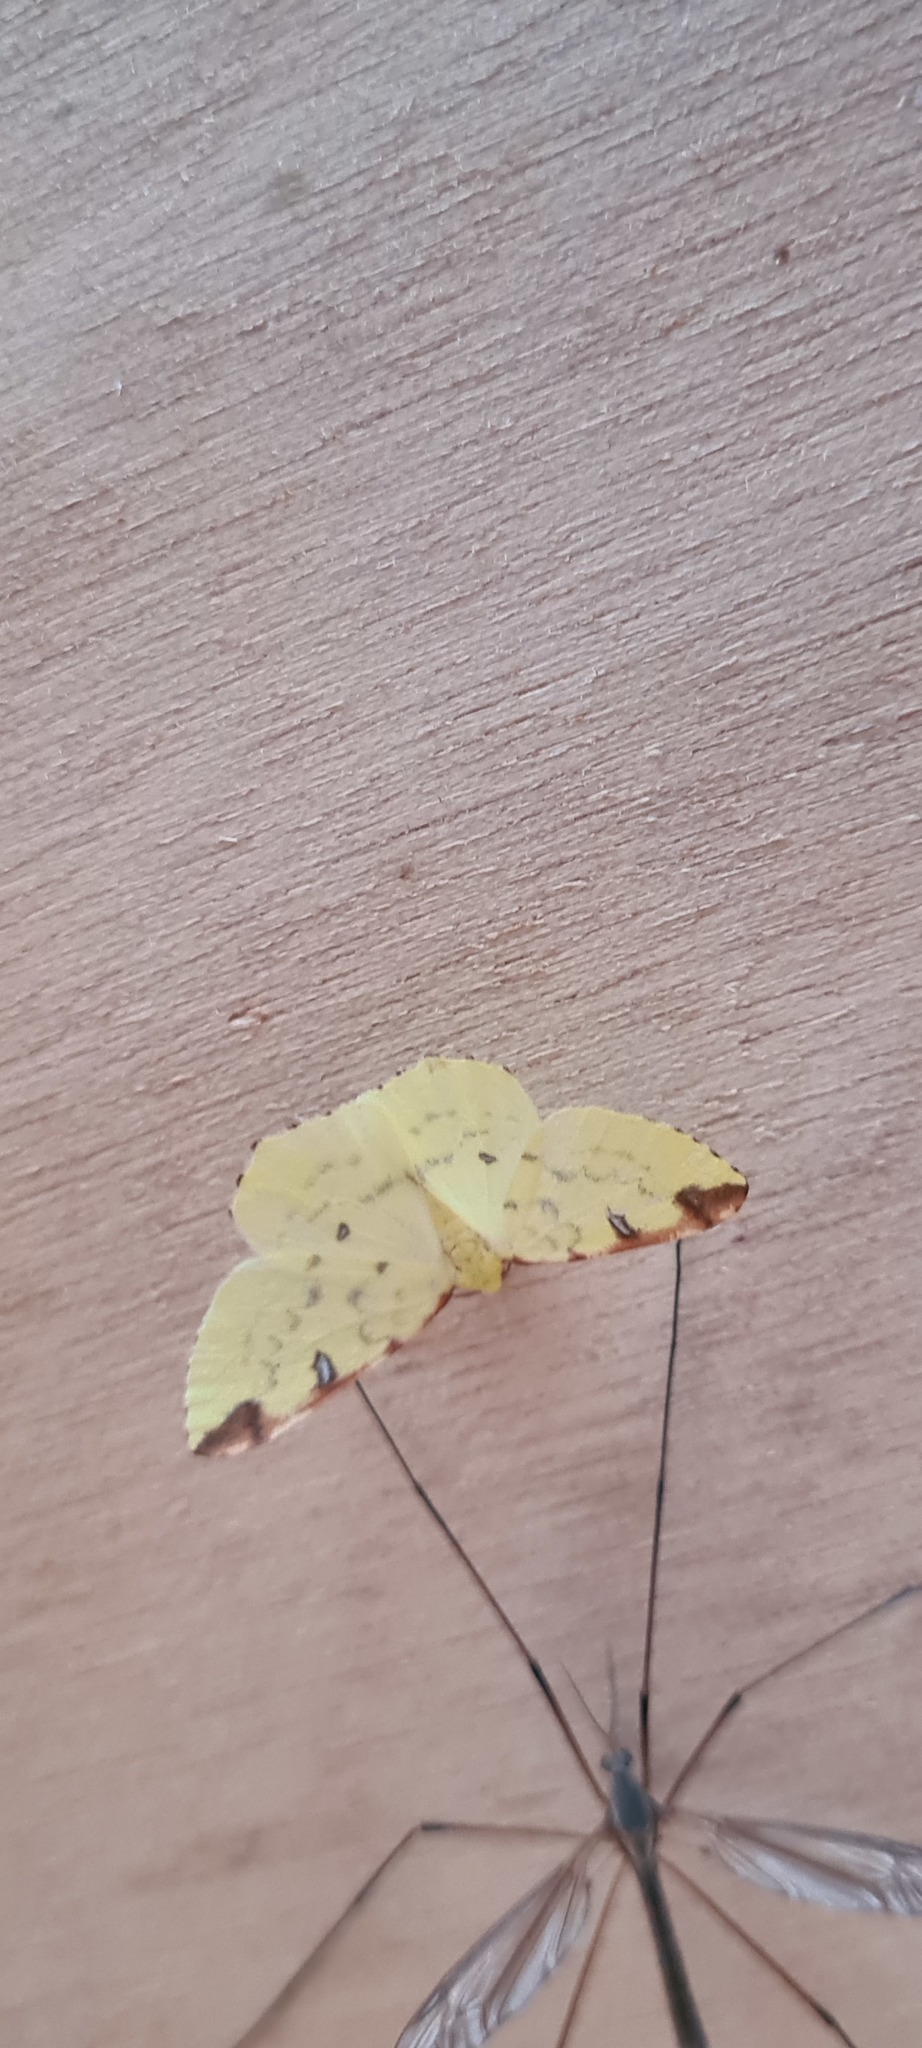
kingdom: Animalia
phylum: Arthropoda
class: Insecta
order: Lepidoptera
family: Geometridae
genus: Opisthograptis
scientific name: Opisthograptis luteolata
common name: Brimstone moth
